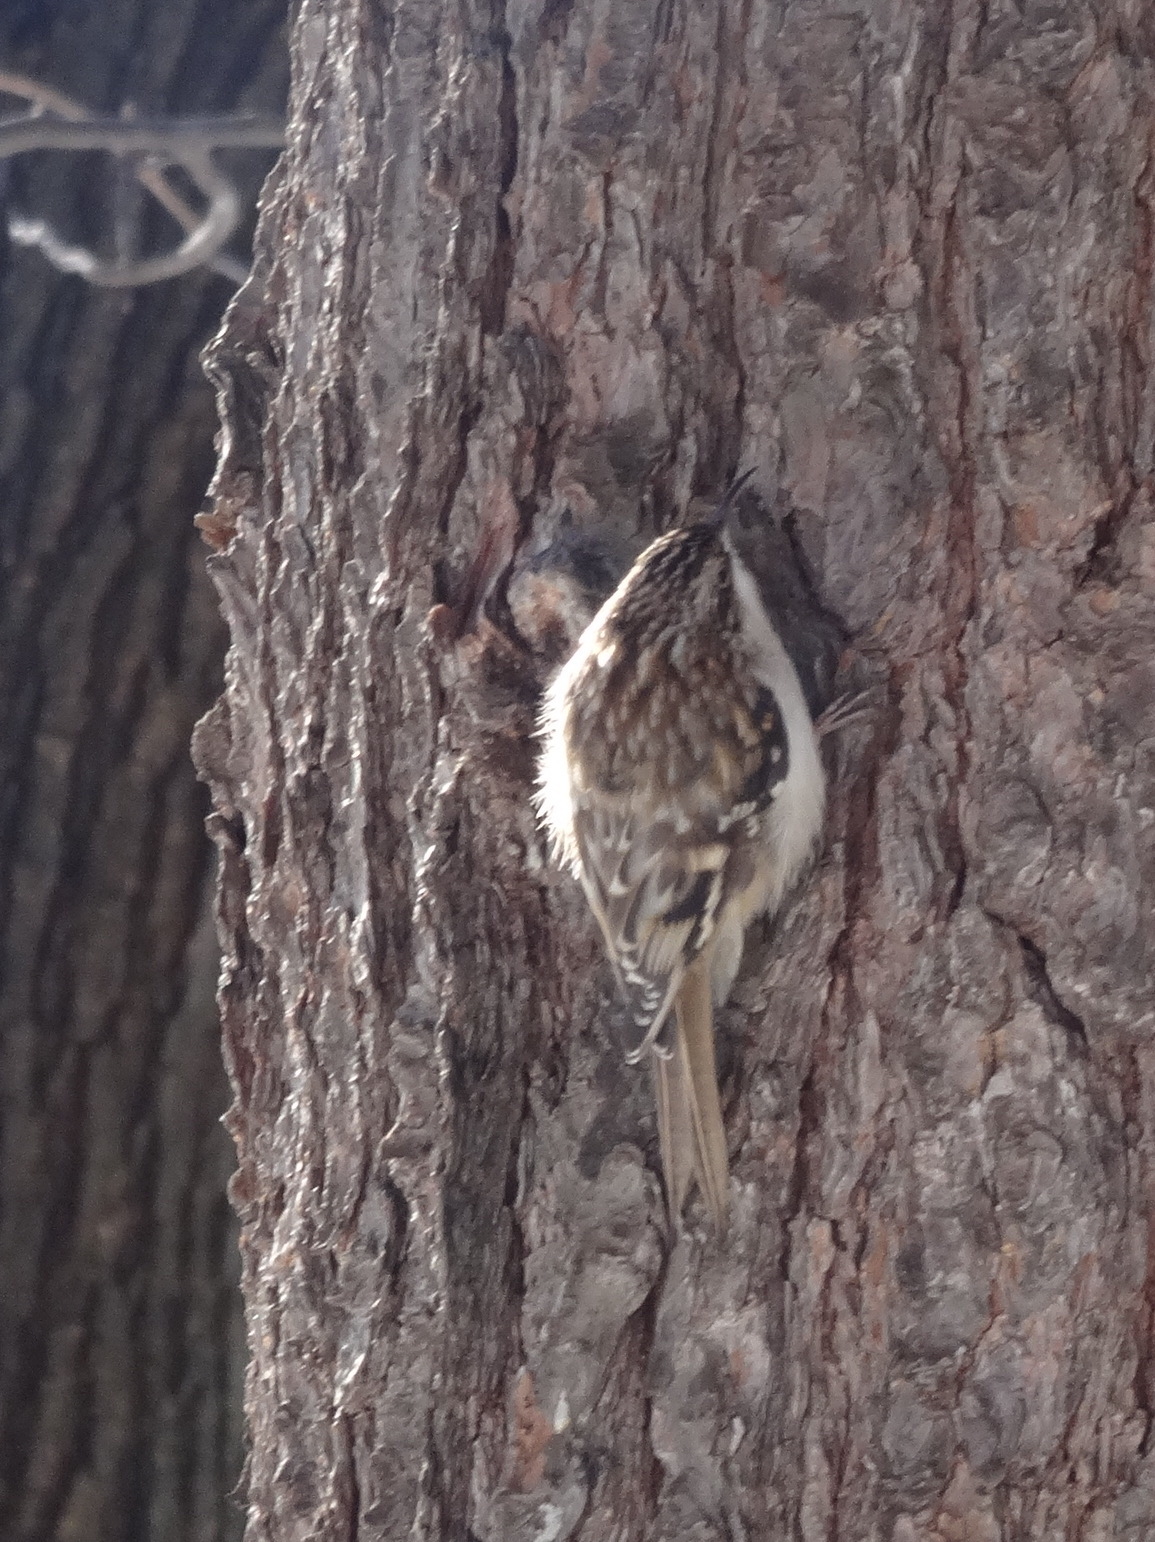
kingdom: Animalia
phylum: Chordata
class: Aves
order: Passeriformes
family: Certhiidae
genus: Certhia
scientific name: Certhia americana
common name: Brown creeper
